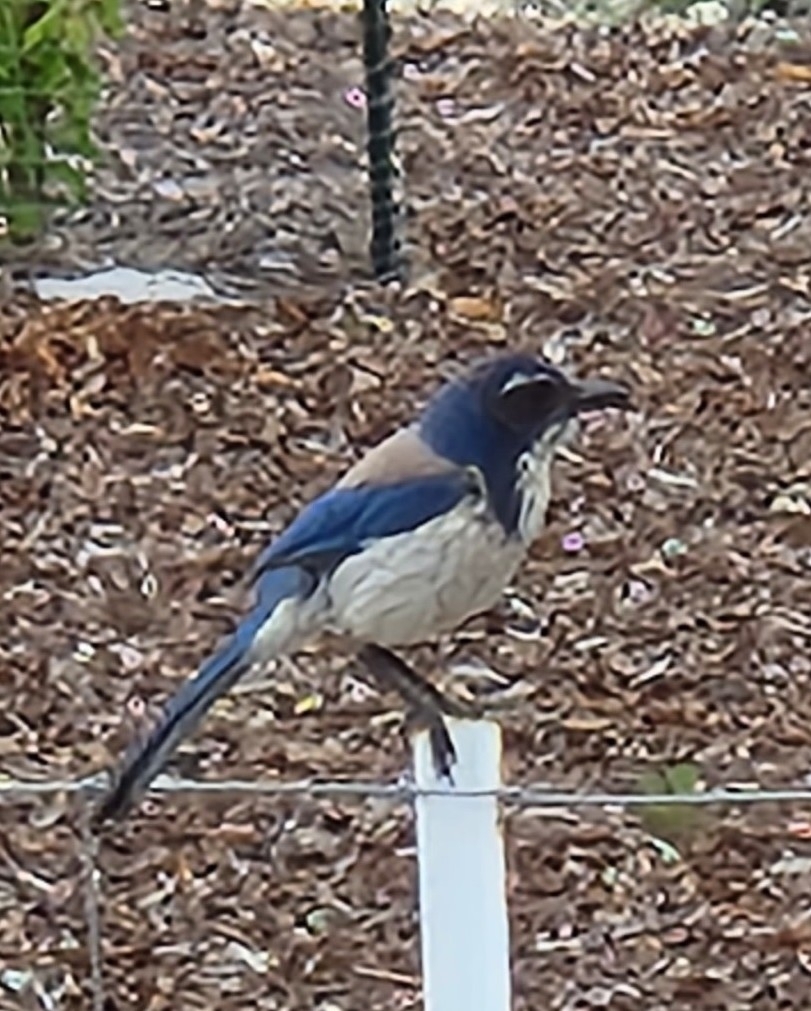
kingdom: Animalia
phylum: Chordata
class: Aves
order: Passeriformes
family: Corvidae
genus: Aphelocoma
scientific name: Aphelocoma californica
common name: California scrub-jay
